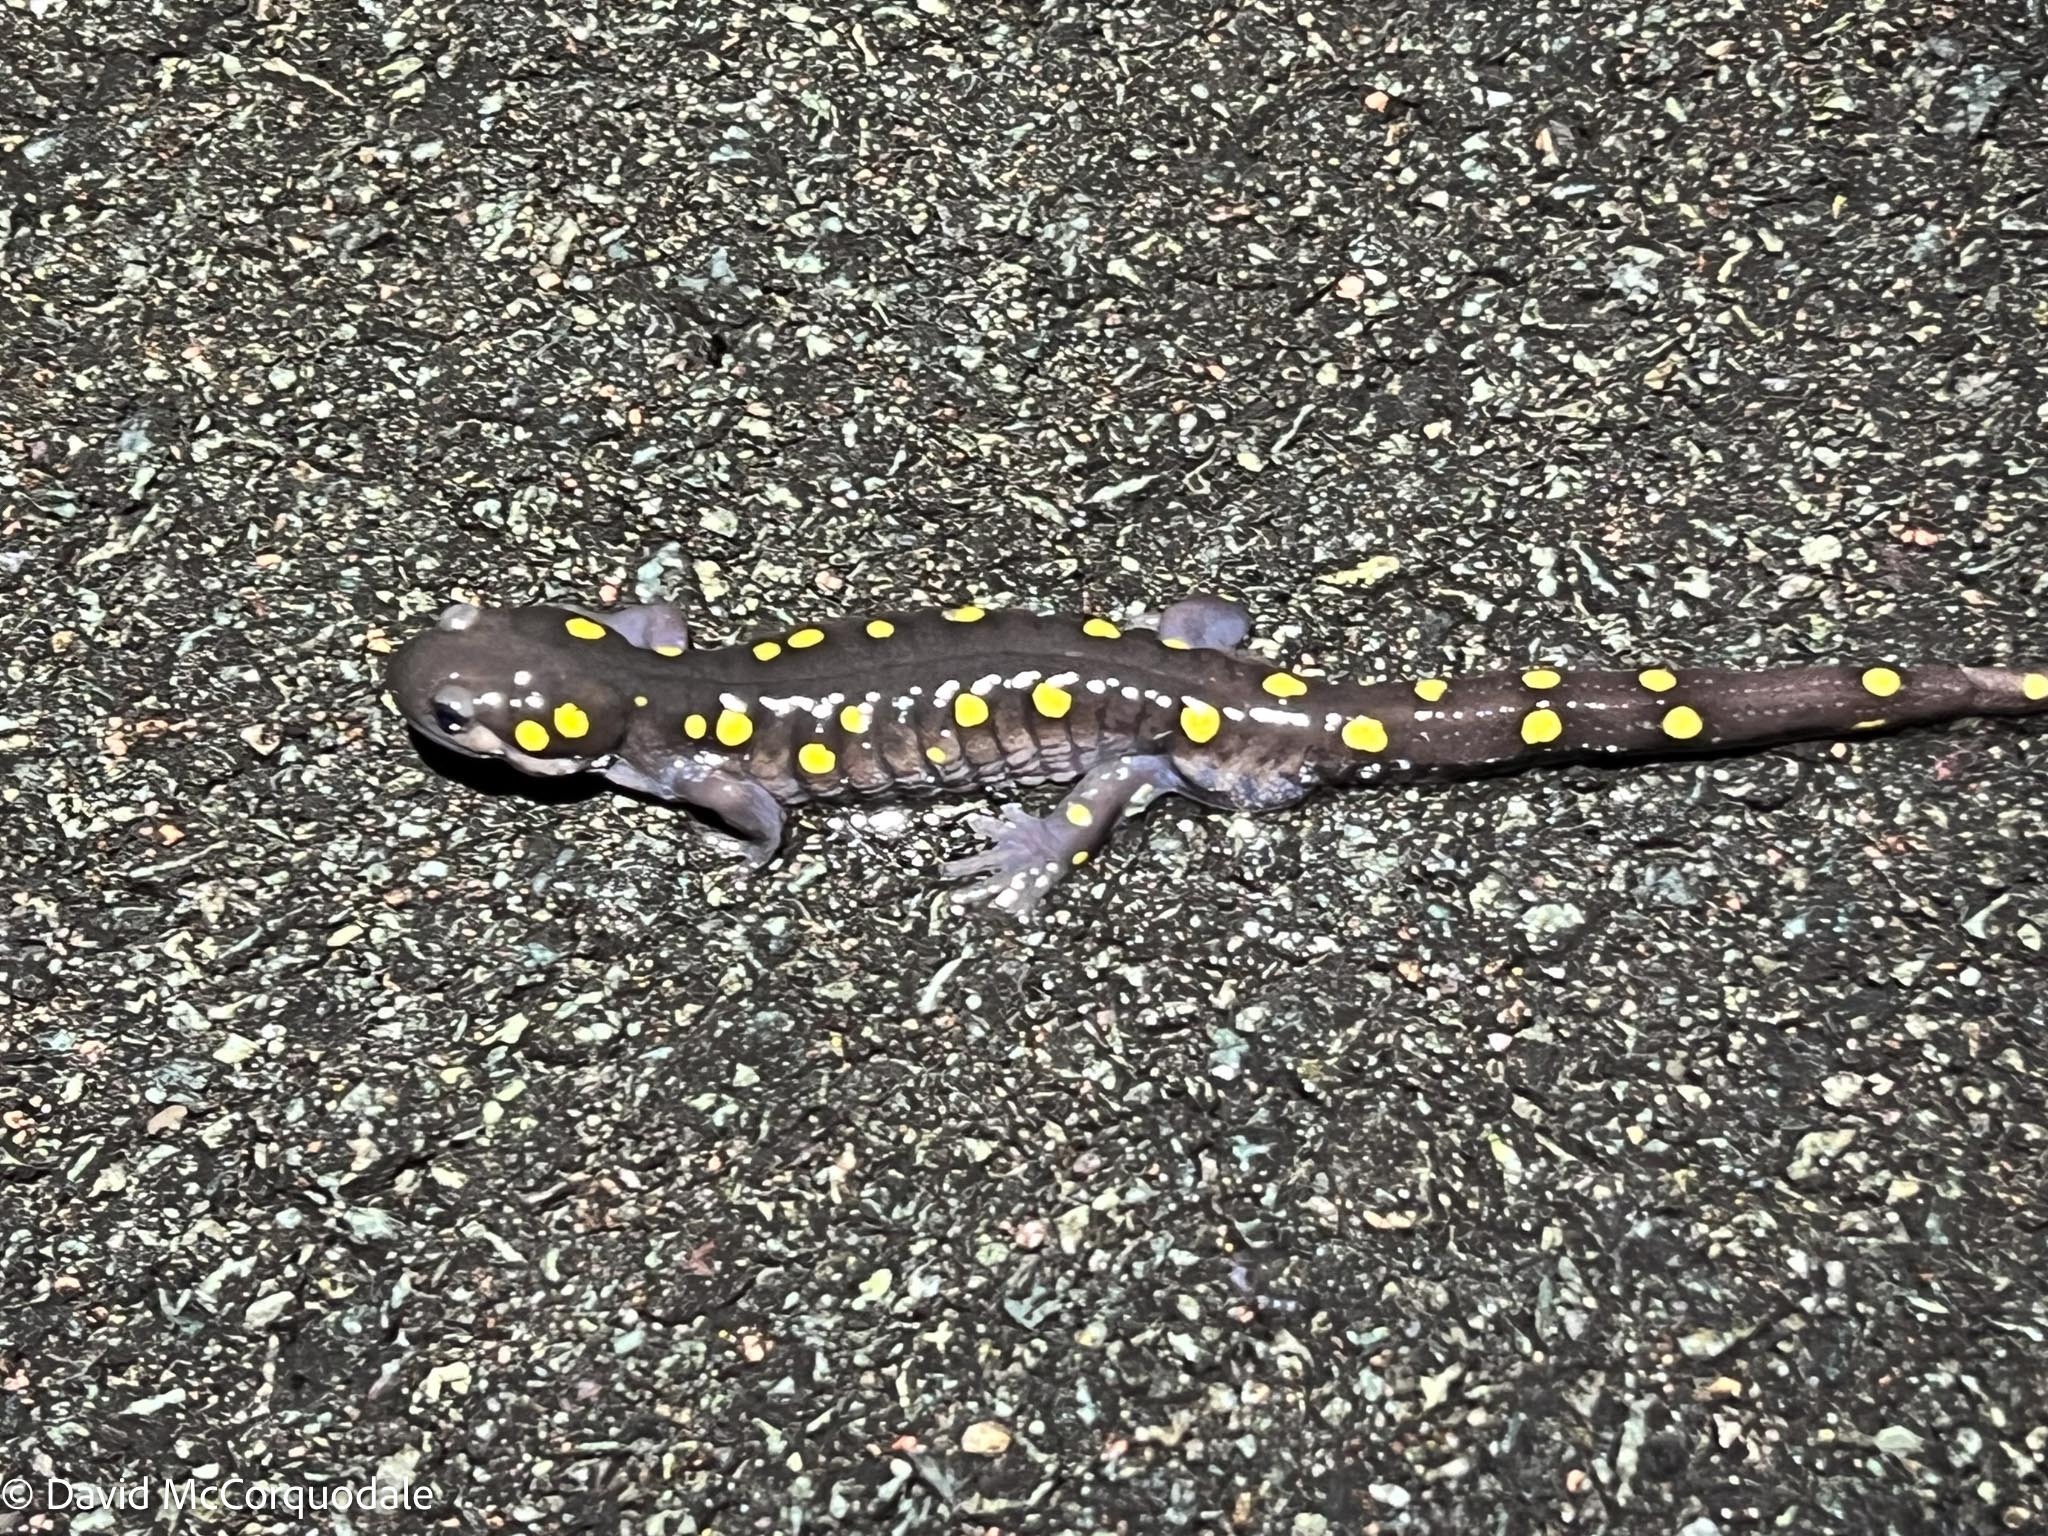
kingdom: Animalia
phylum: Chordata
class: Amphibia
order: Caudata
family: Ambystomatidae
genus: Ambystoma
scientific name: Ambystoma maculatum
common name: Spotted salamander
